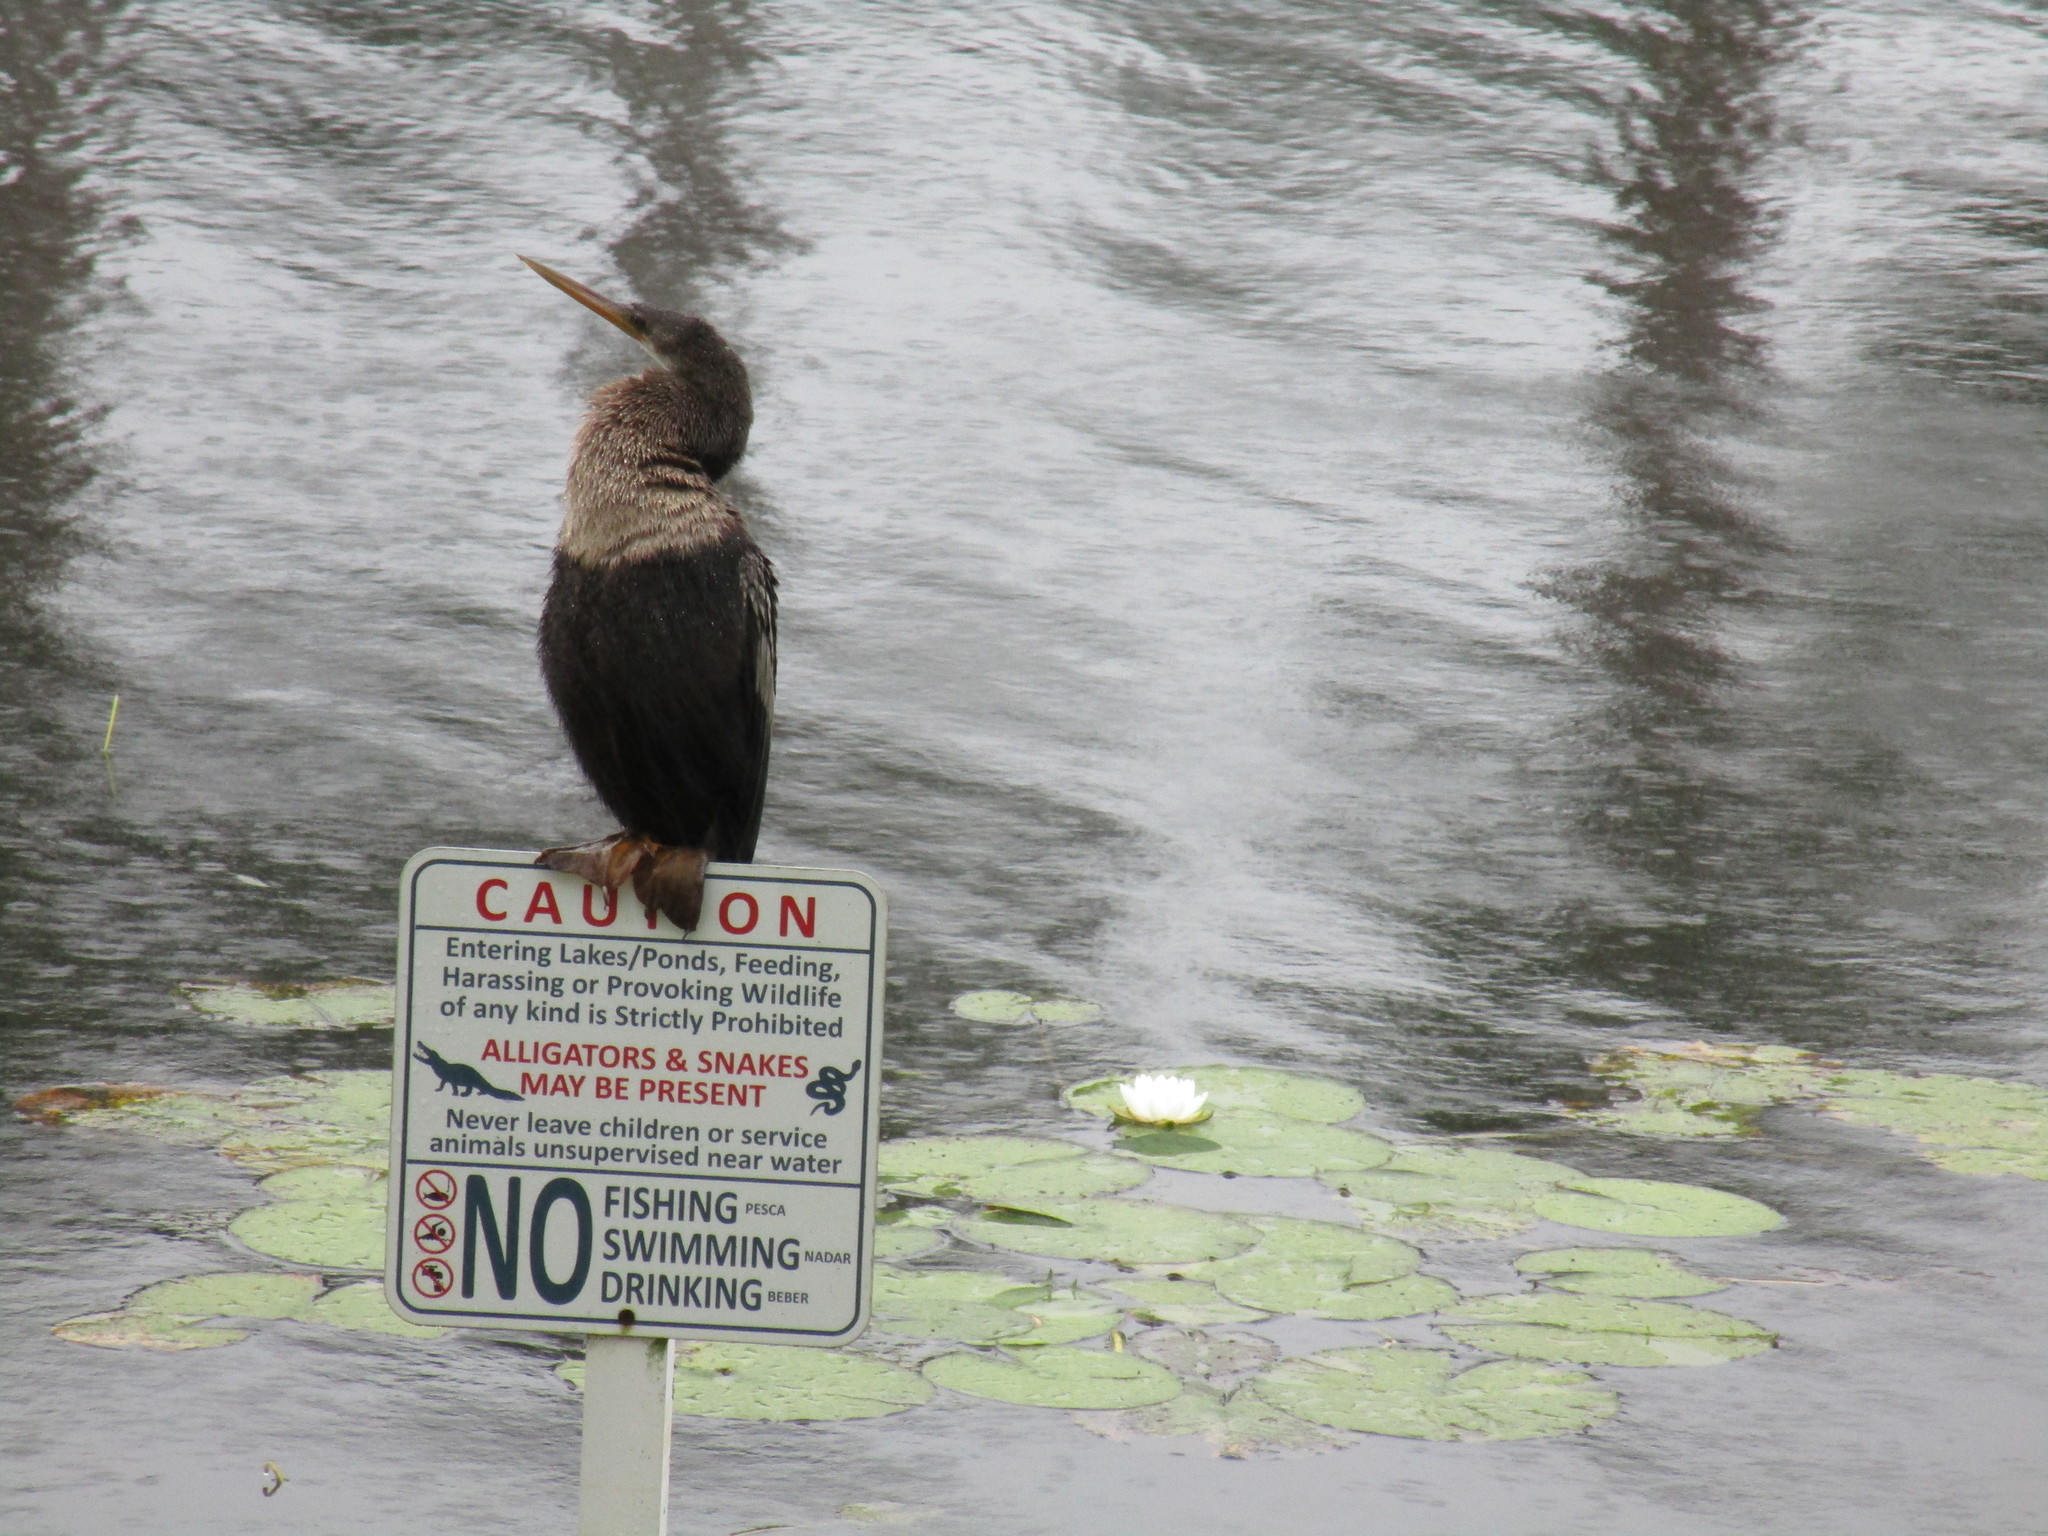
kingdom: Animalia
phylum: Chordata
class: Aves
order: Suliformes
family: Anhingidae
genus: Anhinga
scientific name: Anhinga anhinga
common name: Anhinga
